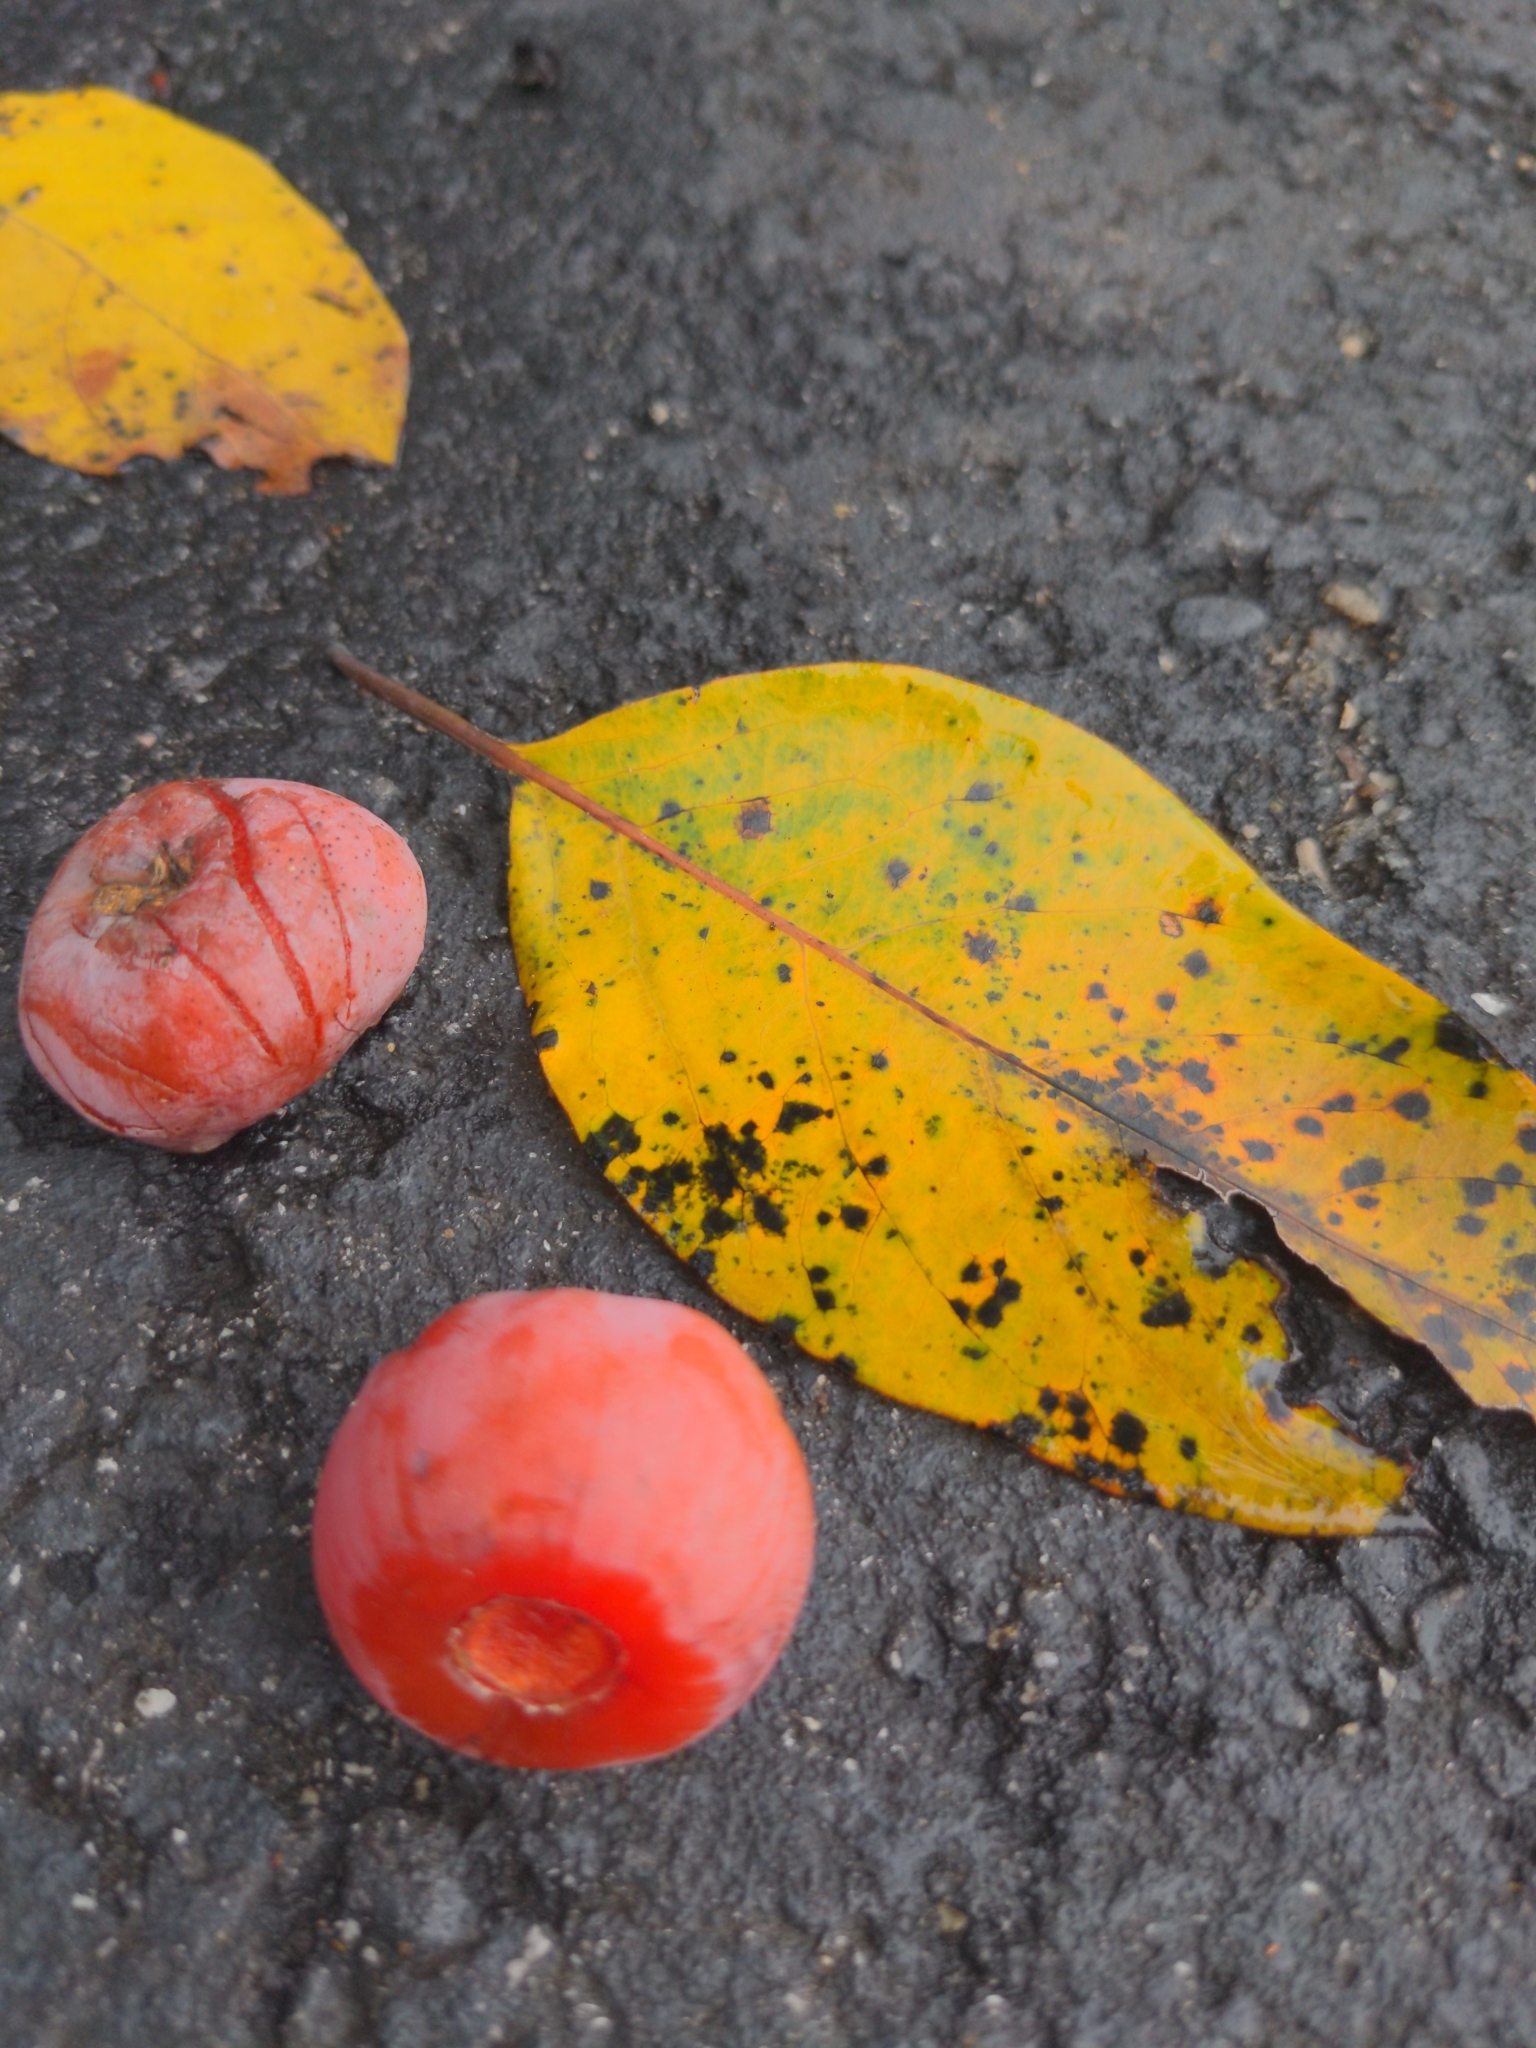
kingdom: Plantae
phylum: Tracheophyta
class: Magnoliopsida
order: Ericales
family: Ebenaceae
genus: Diospyros
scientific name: Diospyros virginiana
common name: Persimmon
